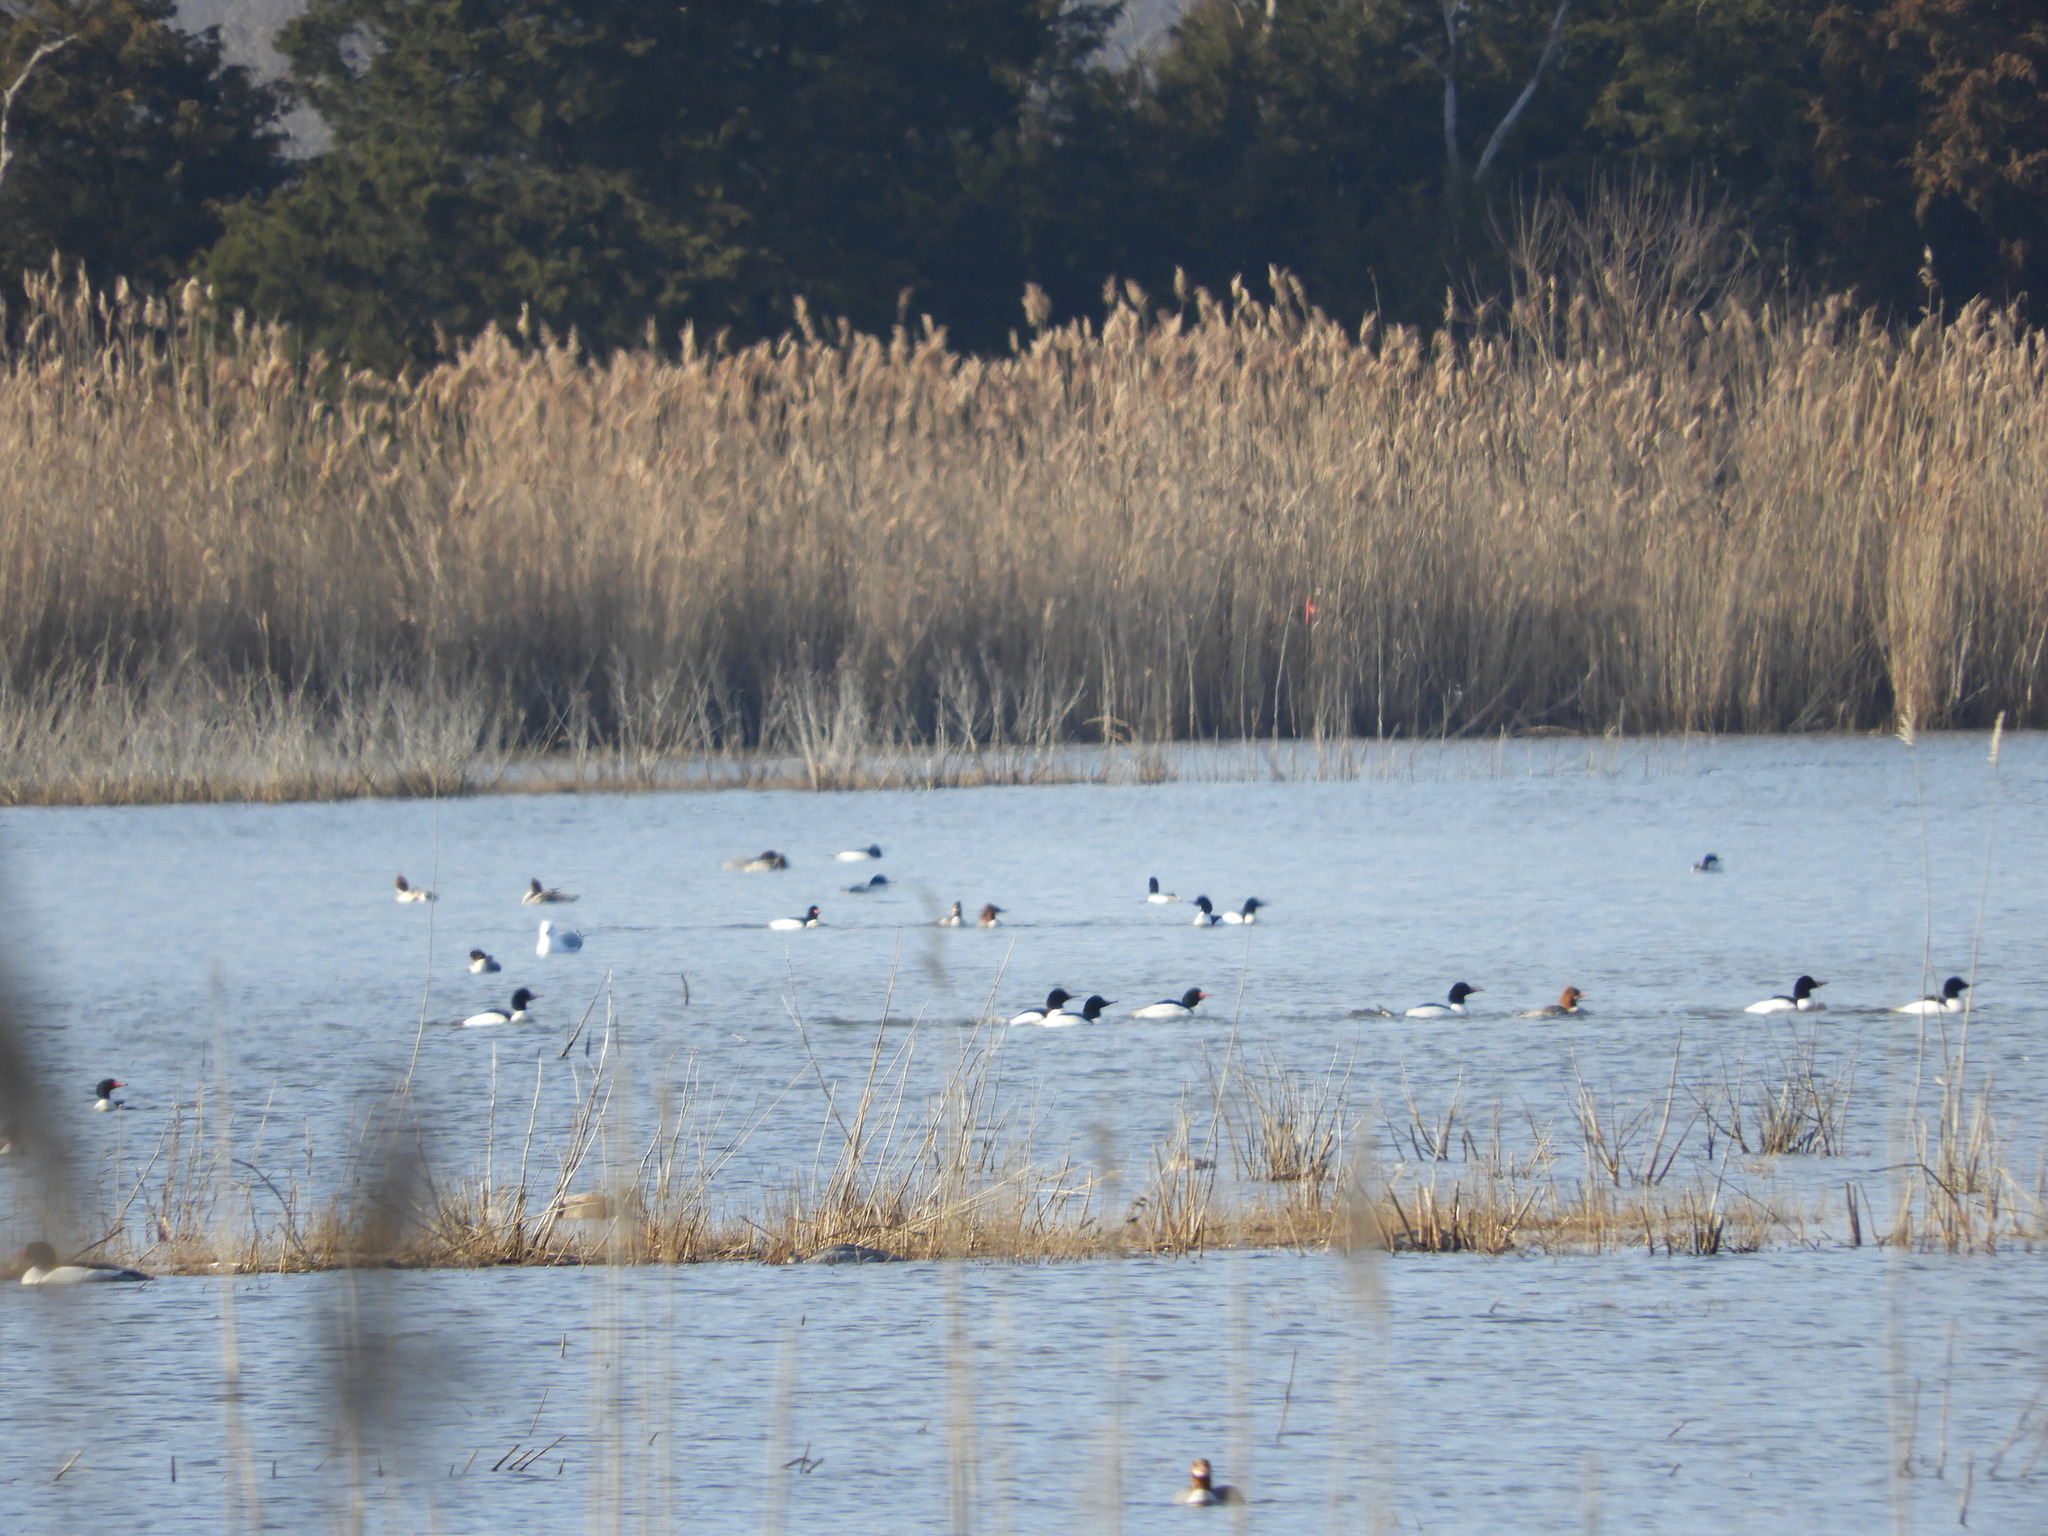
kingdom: Animalia
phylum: Chordata
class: Aves
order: Anseriformes
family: Anatidae
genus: Mergus
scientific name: Mergus merganser
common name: Common merganser
